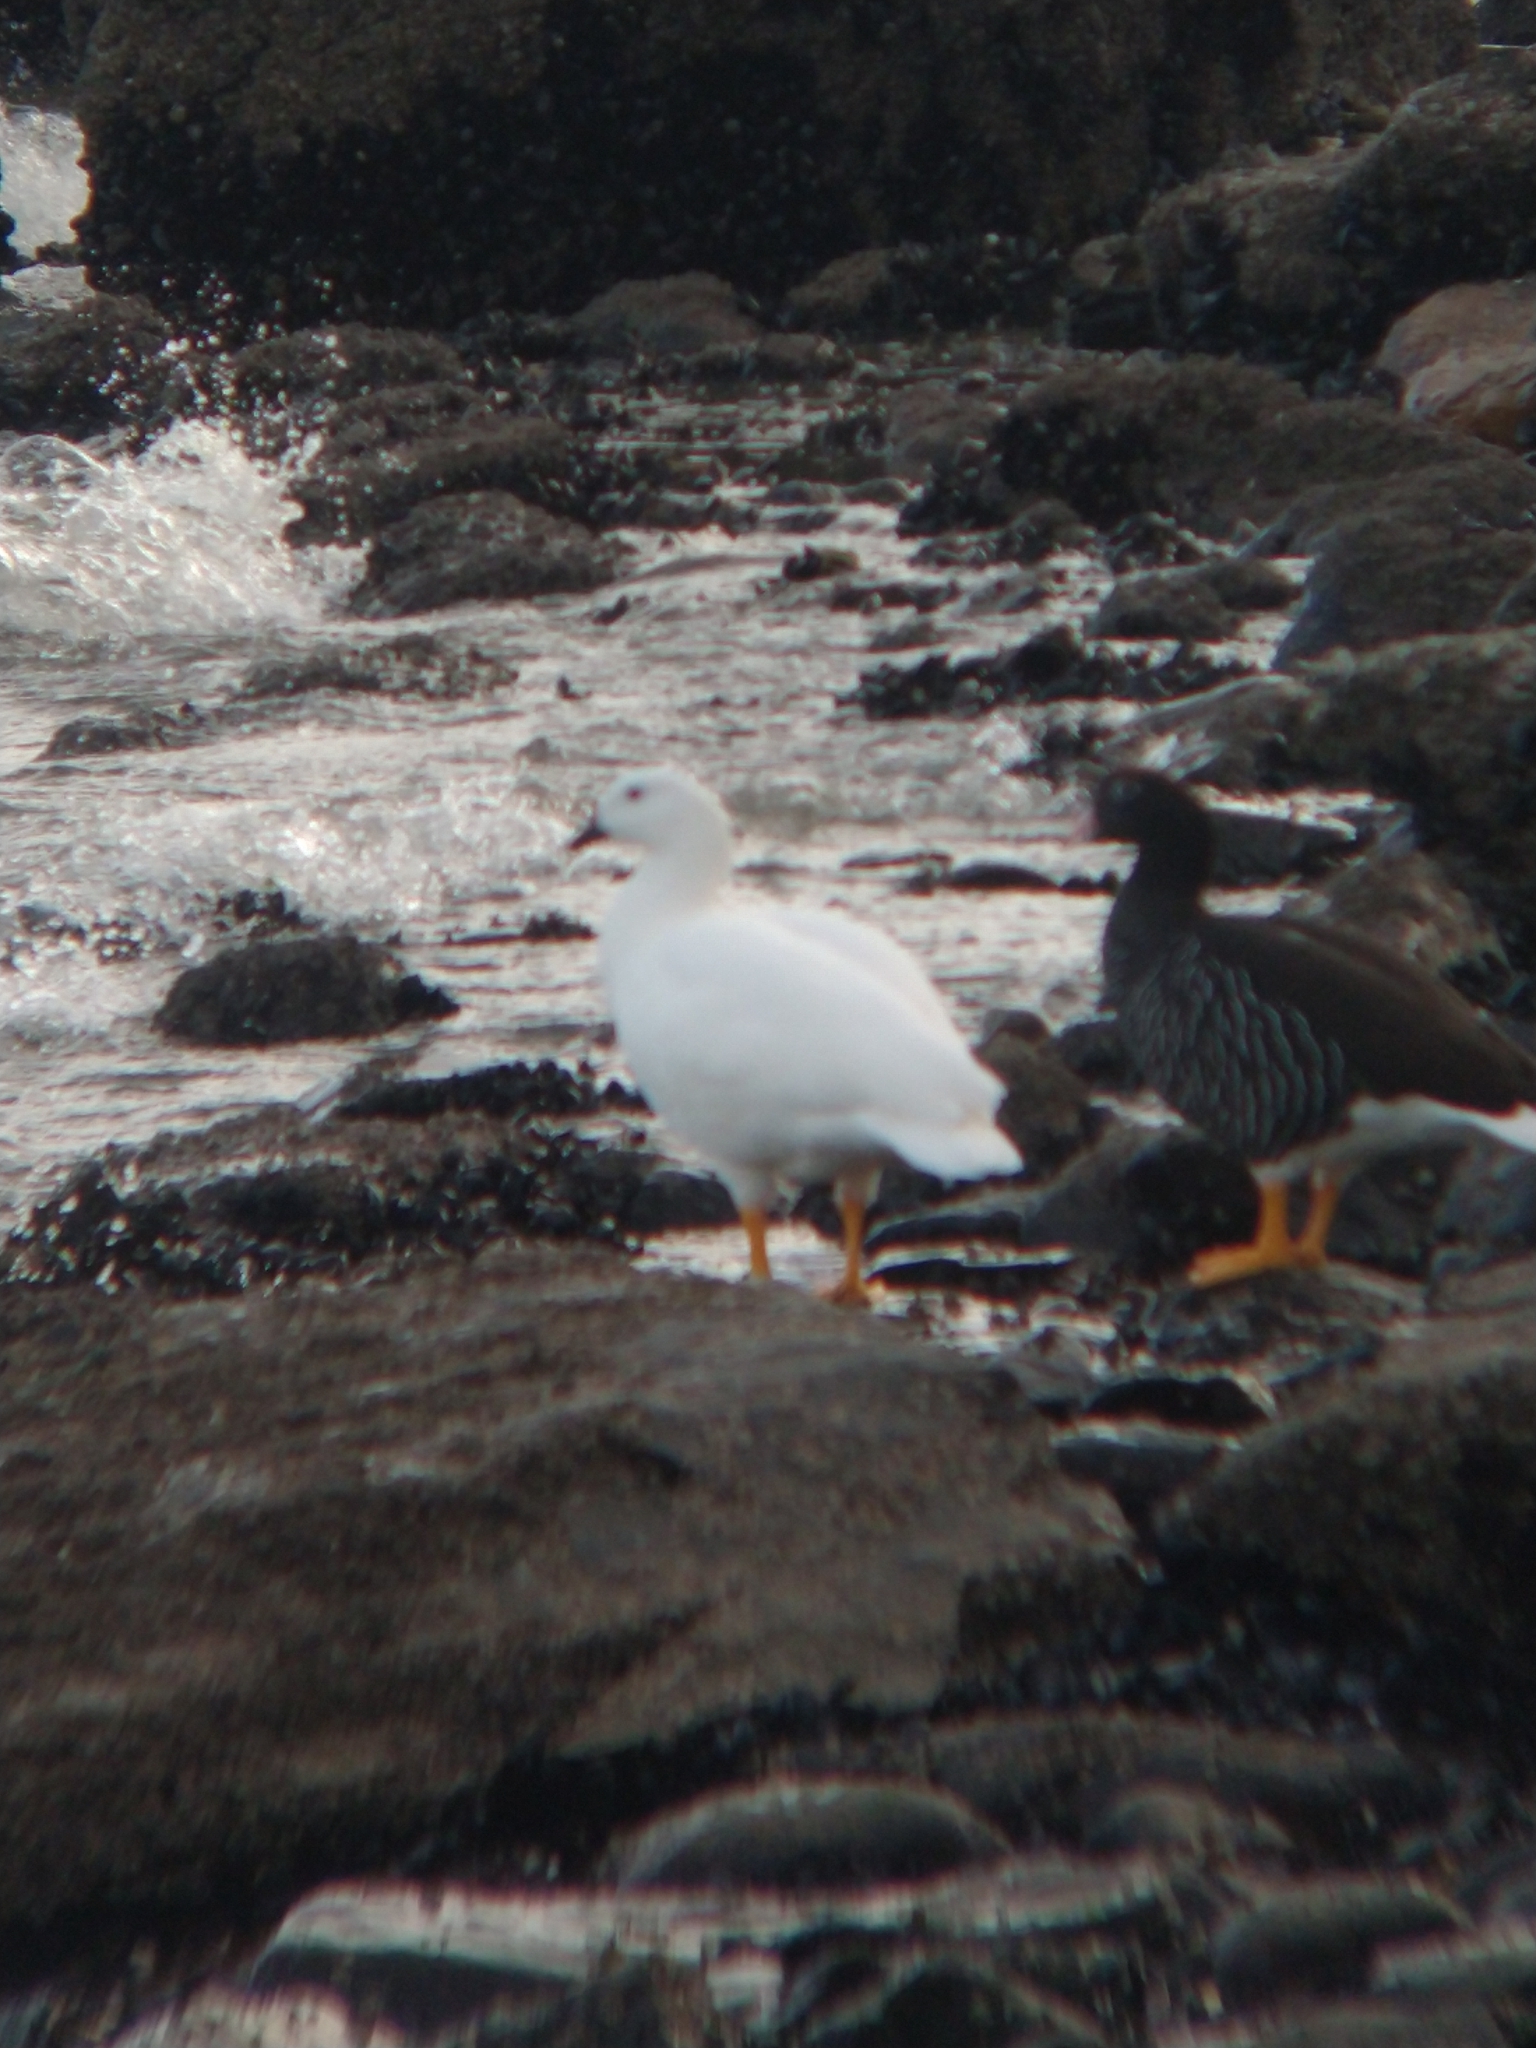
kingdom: Animalia
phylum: Chordata
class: Aves
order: Anseriformes
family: Anatidae
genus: Chloephaga
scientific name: Chloephaga hybrida
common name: Kelp goose
